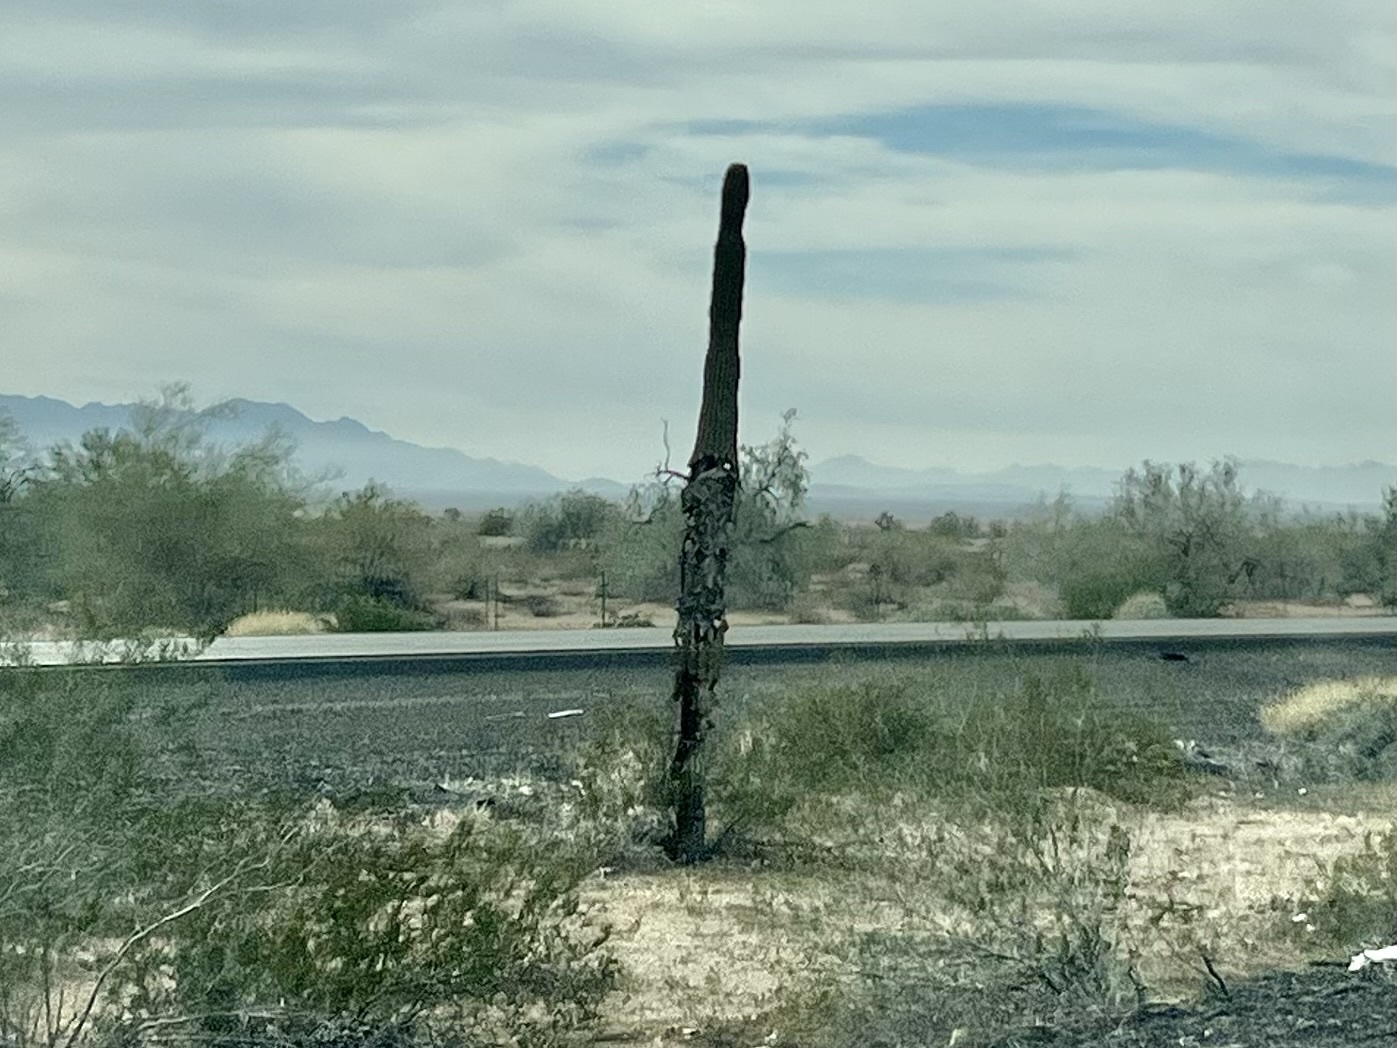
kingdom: Plantae
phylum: Tracheophyta
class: Magnoliopsida
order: Caryophyllales
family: Cactaceae
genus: Carnegiea
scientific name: Carnegiea gigantea
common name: Saguaro
